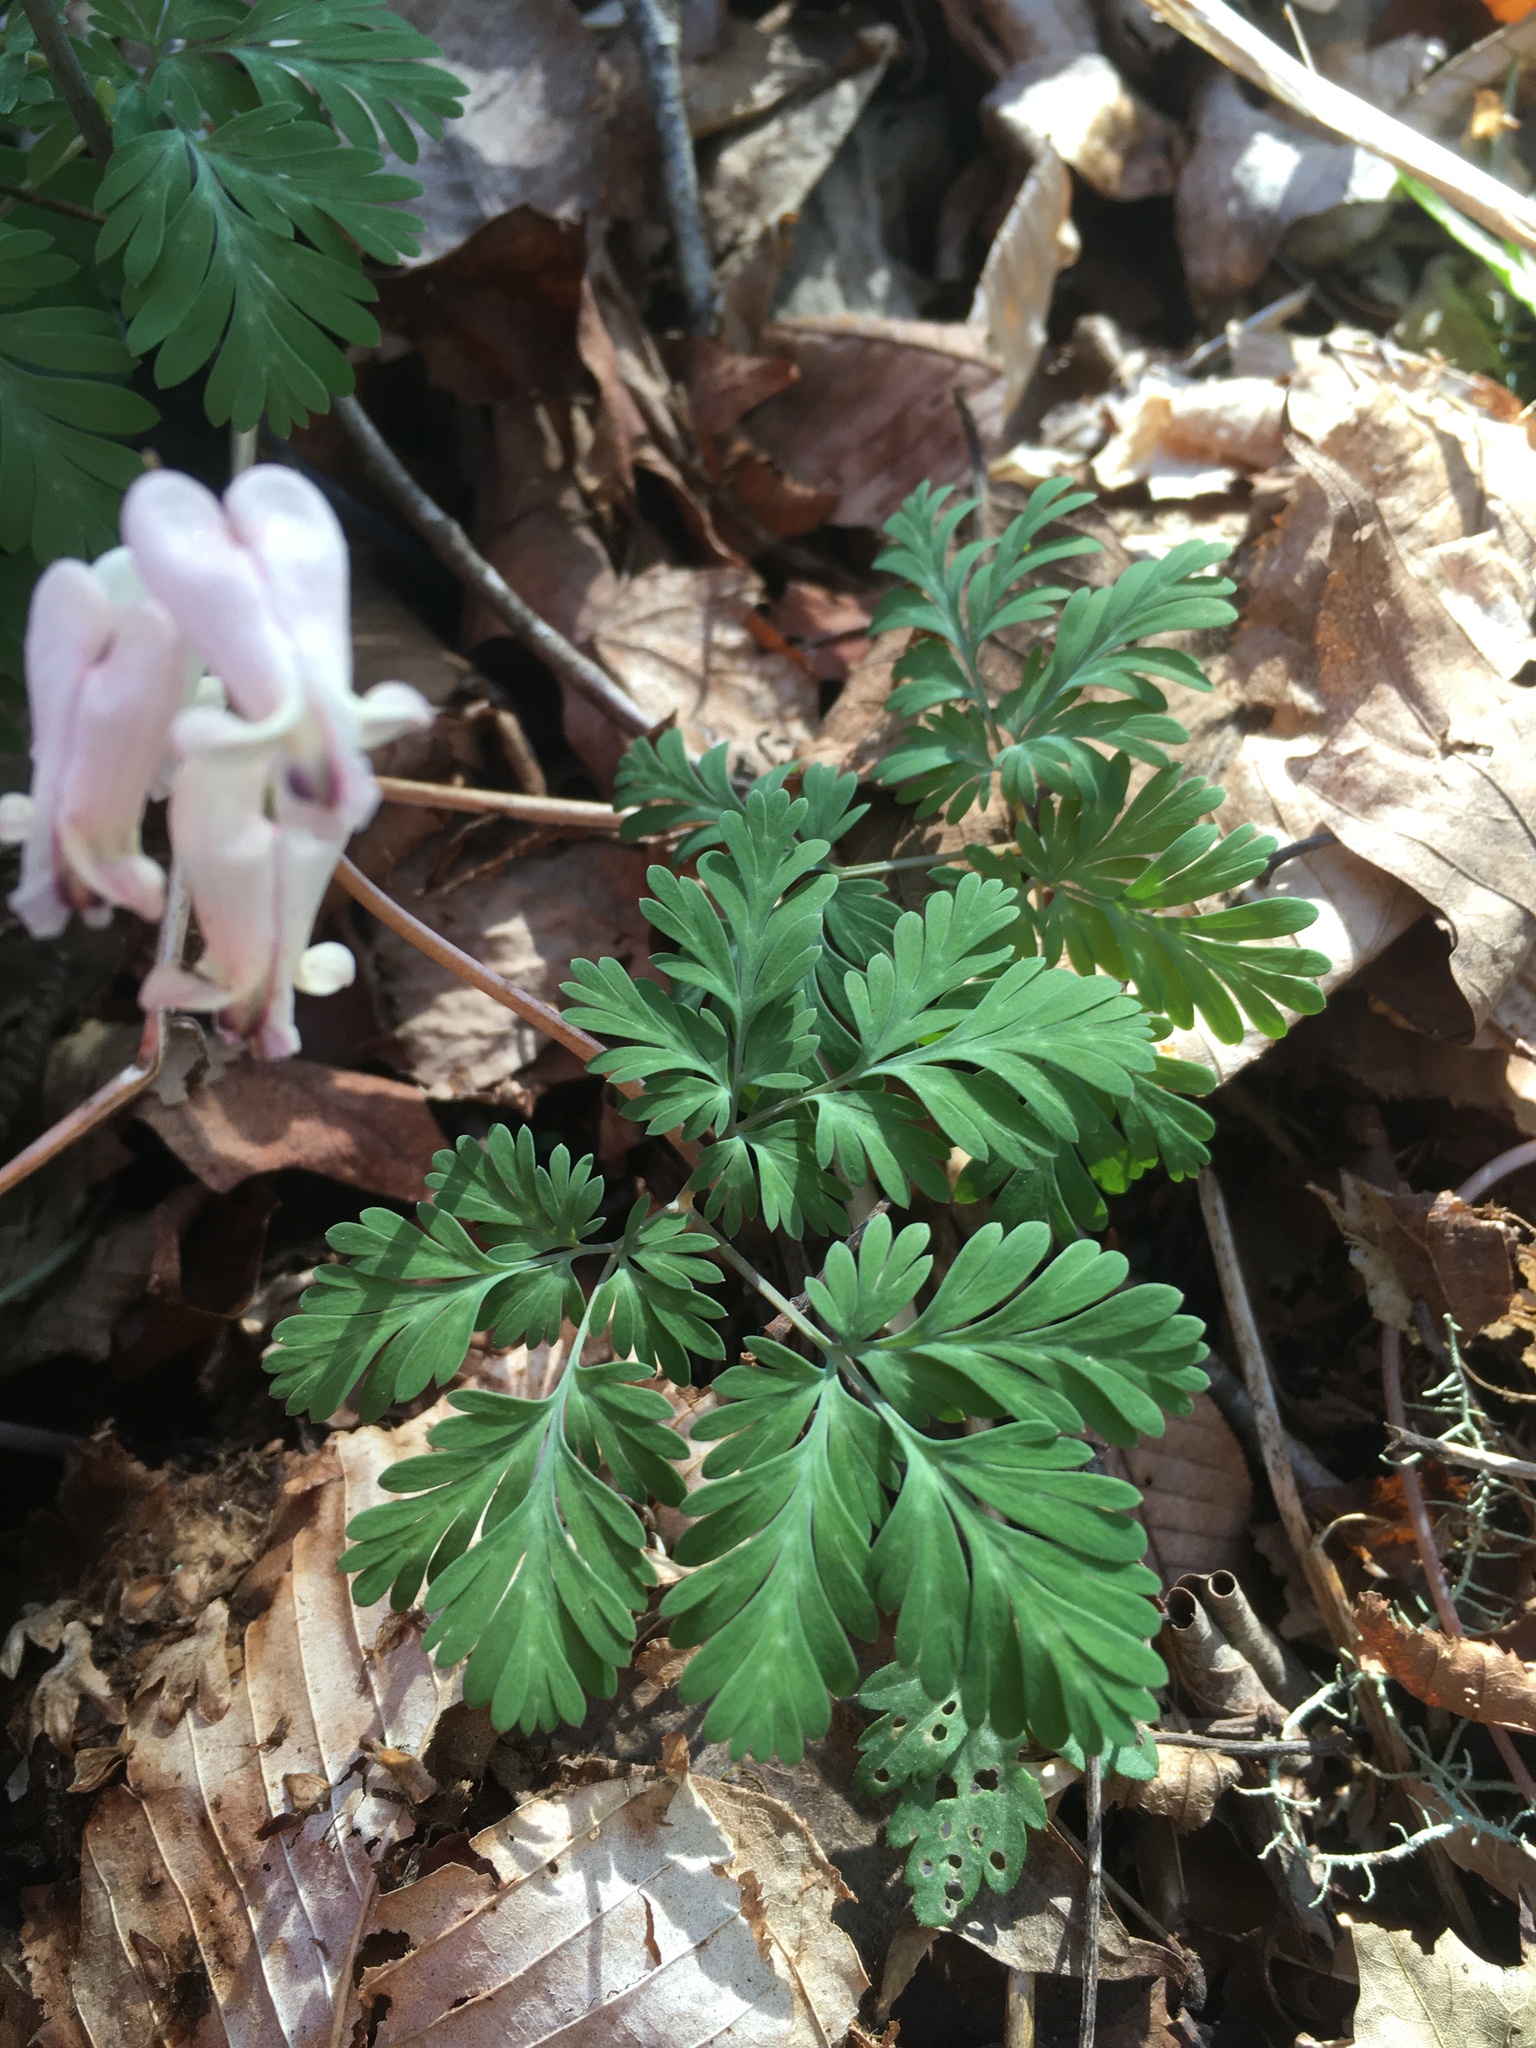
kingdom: Plantae
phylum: Tracheophyta
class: Magnoliopsida
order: Ranunculales
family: Papaveraceae
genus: Dicentra
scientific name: Dicentra canadensis
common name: Squirrel-corn
